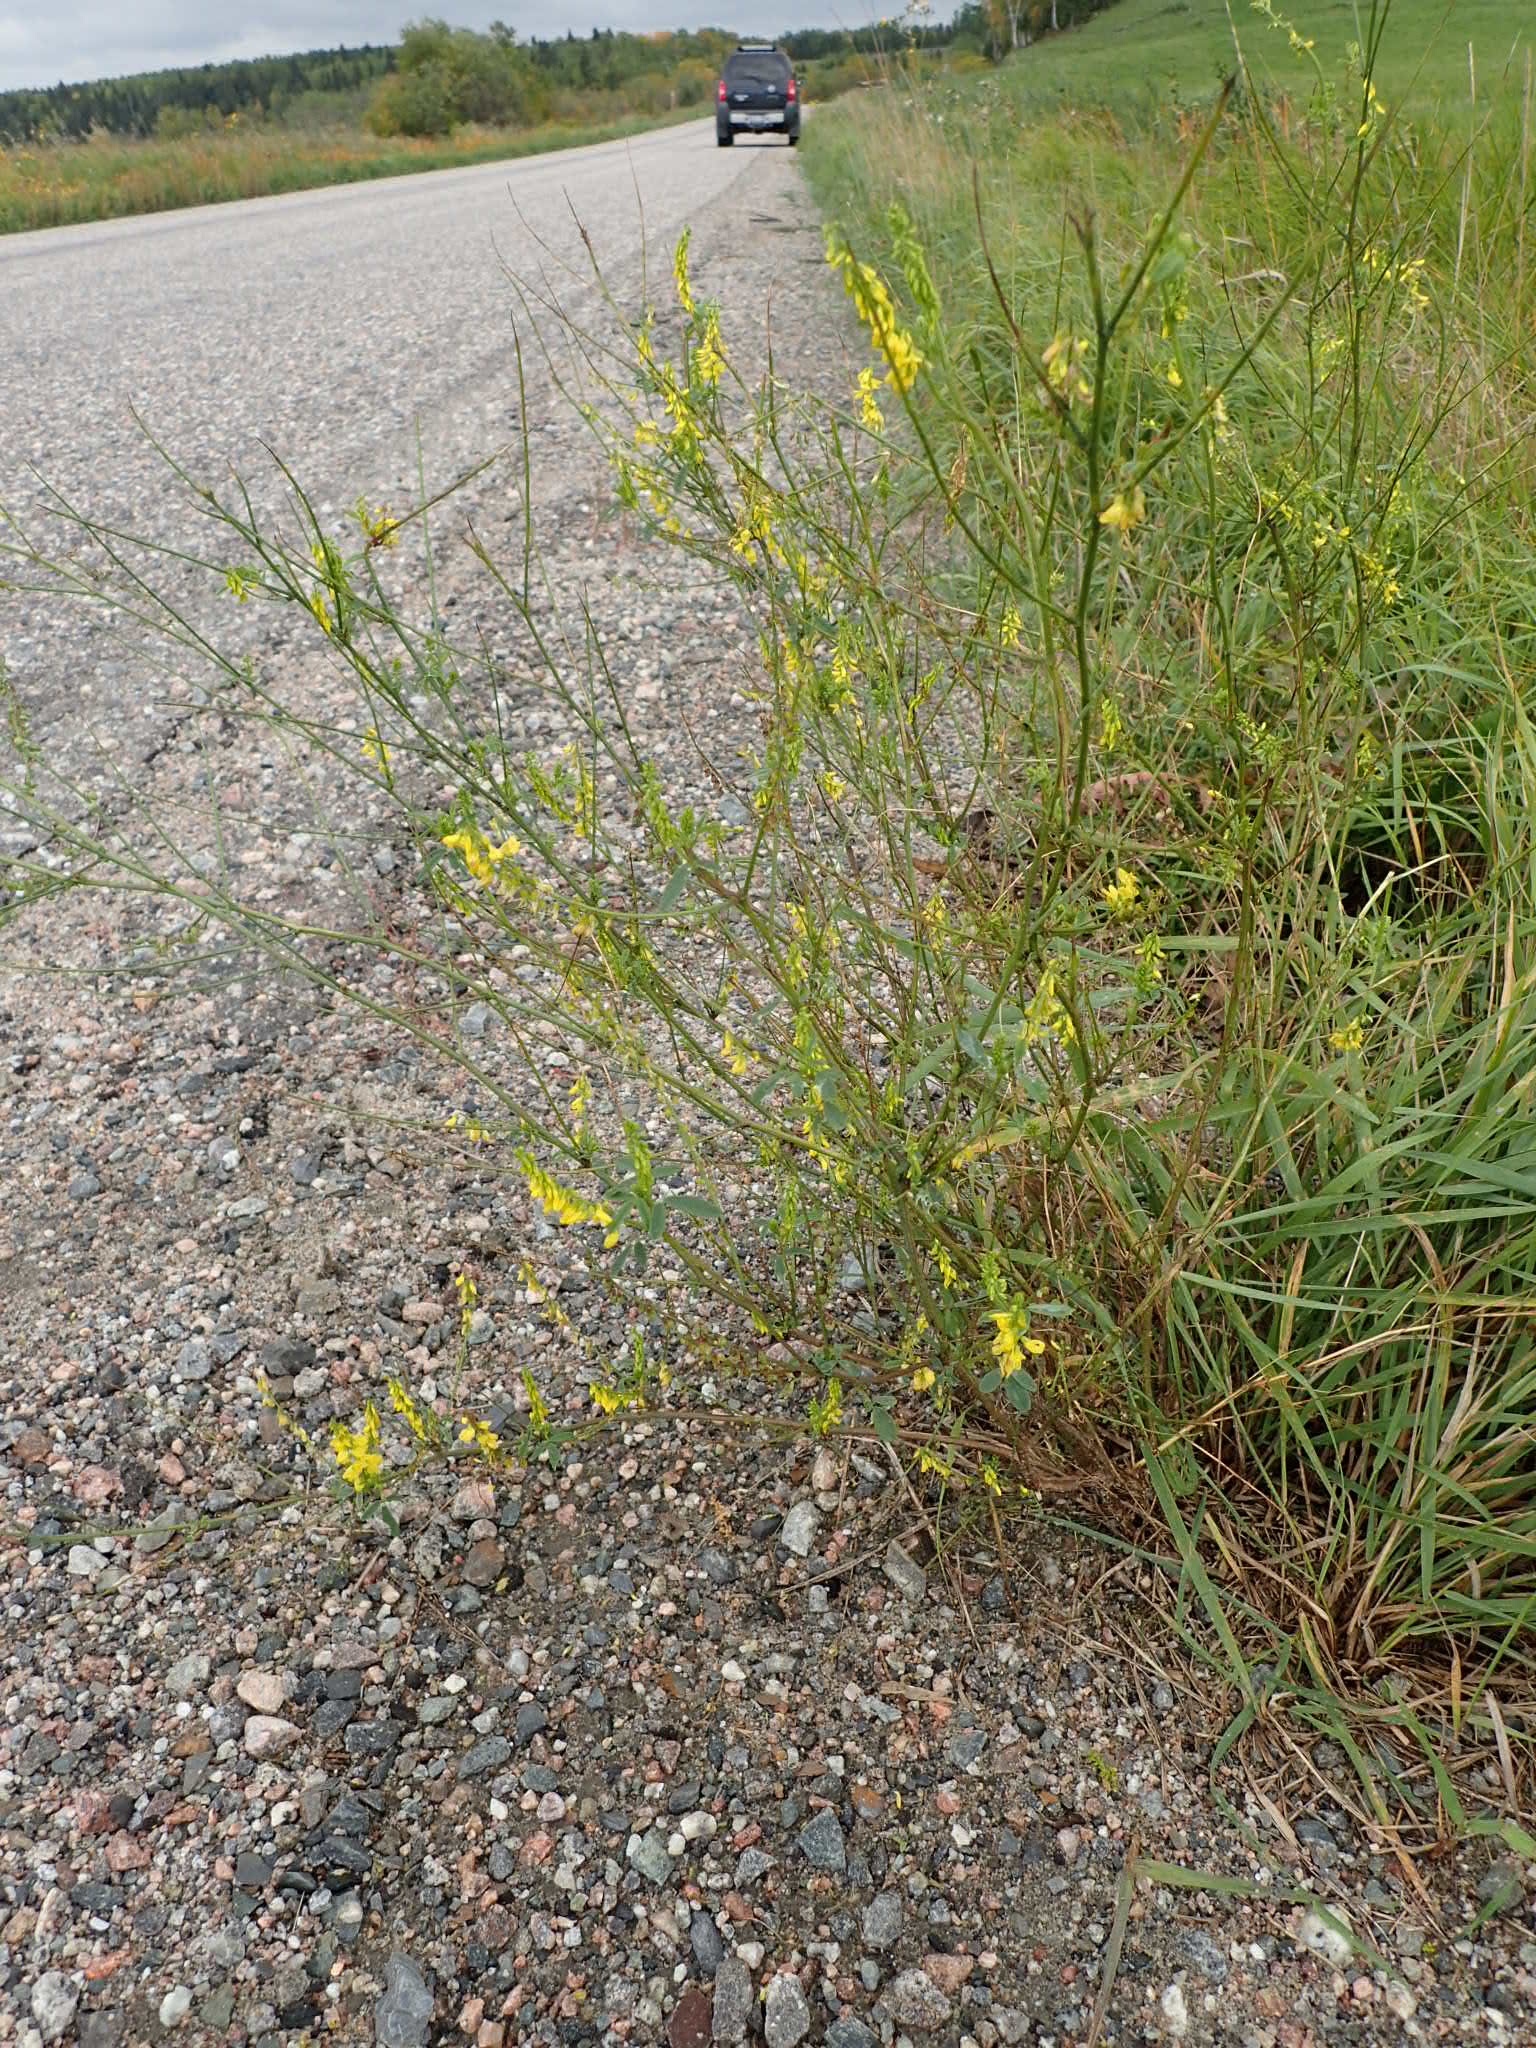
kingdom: Plantae
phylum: Tracheophyta
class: Magnoliopsida
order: Fabales
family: Fabaceae
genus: Melilotus
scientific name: Melilotus officinalis
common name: Sweetclover
